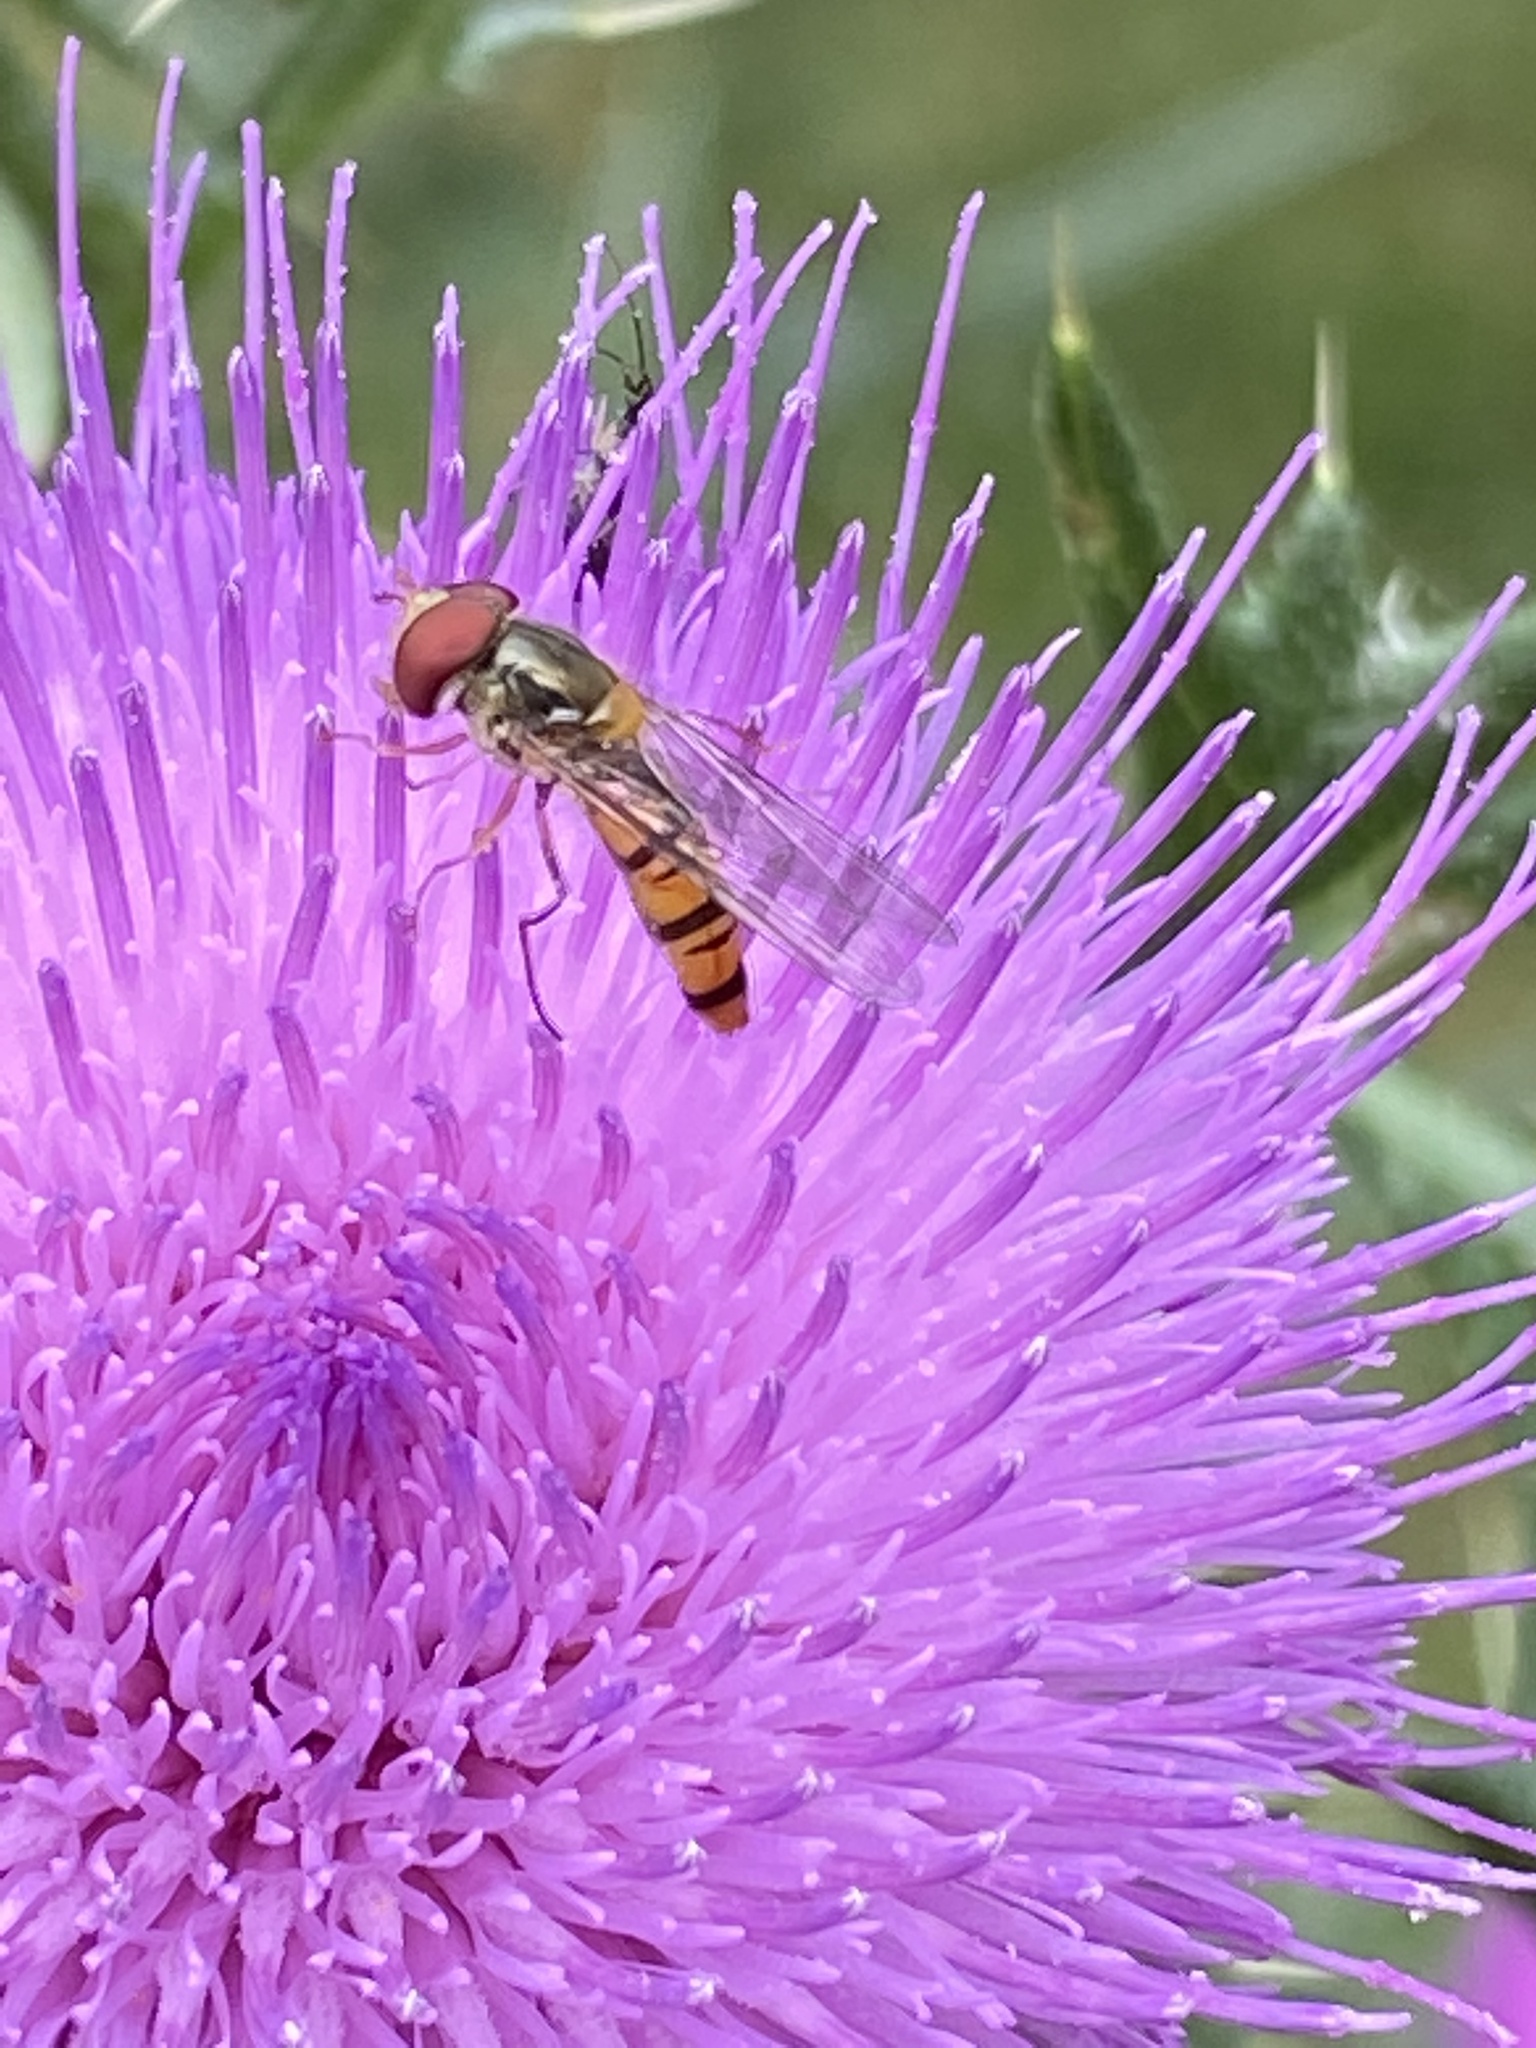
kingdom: Animalia
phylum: Arthropoda
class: Insecta
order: Diptera
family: Syrphidae
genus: Episyrphus
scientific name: Episyrphus balteatus
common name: Marmalade hoverfly
